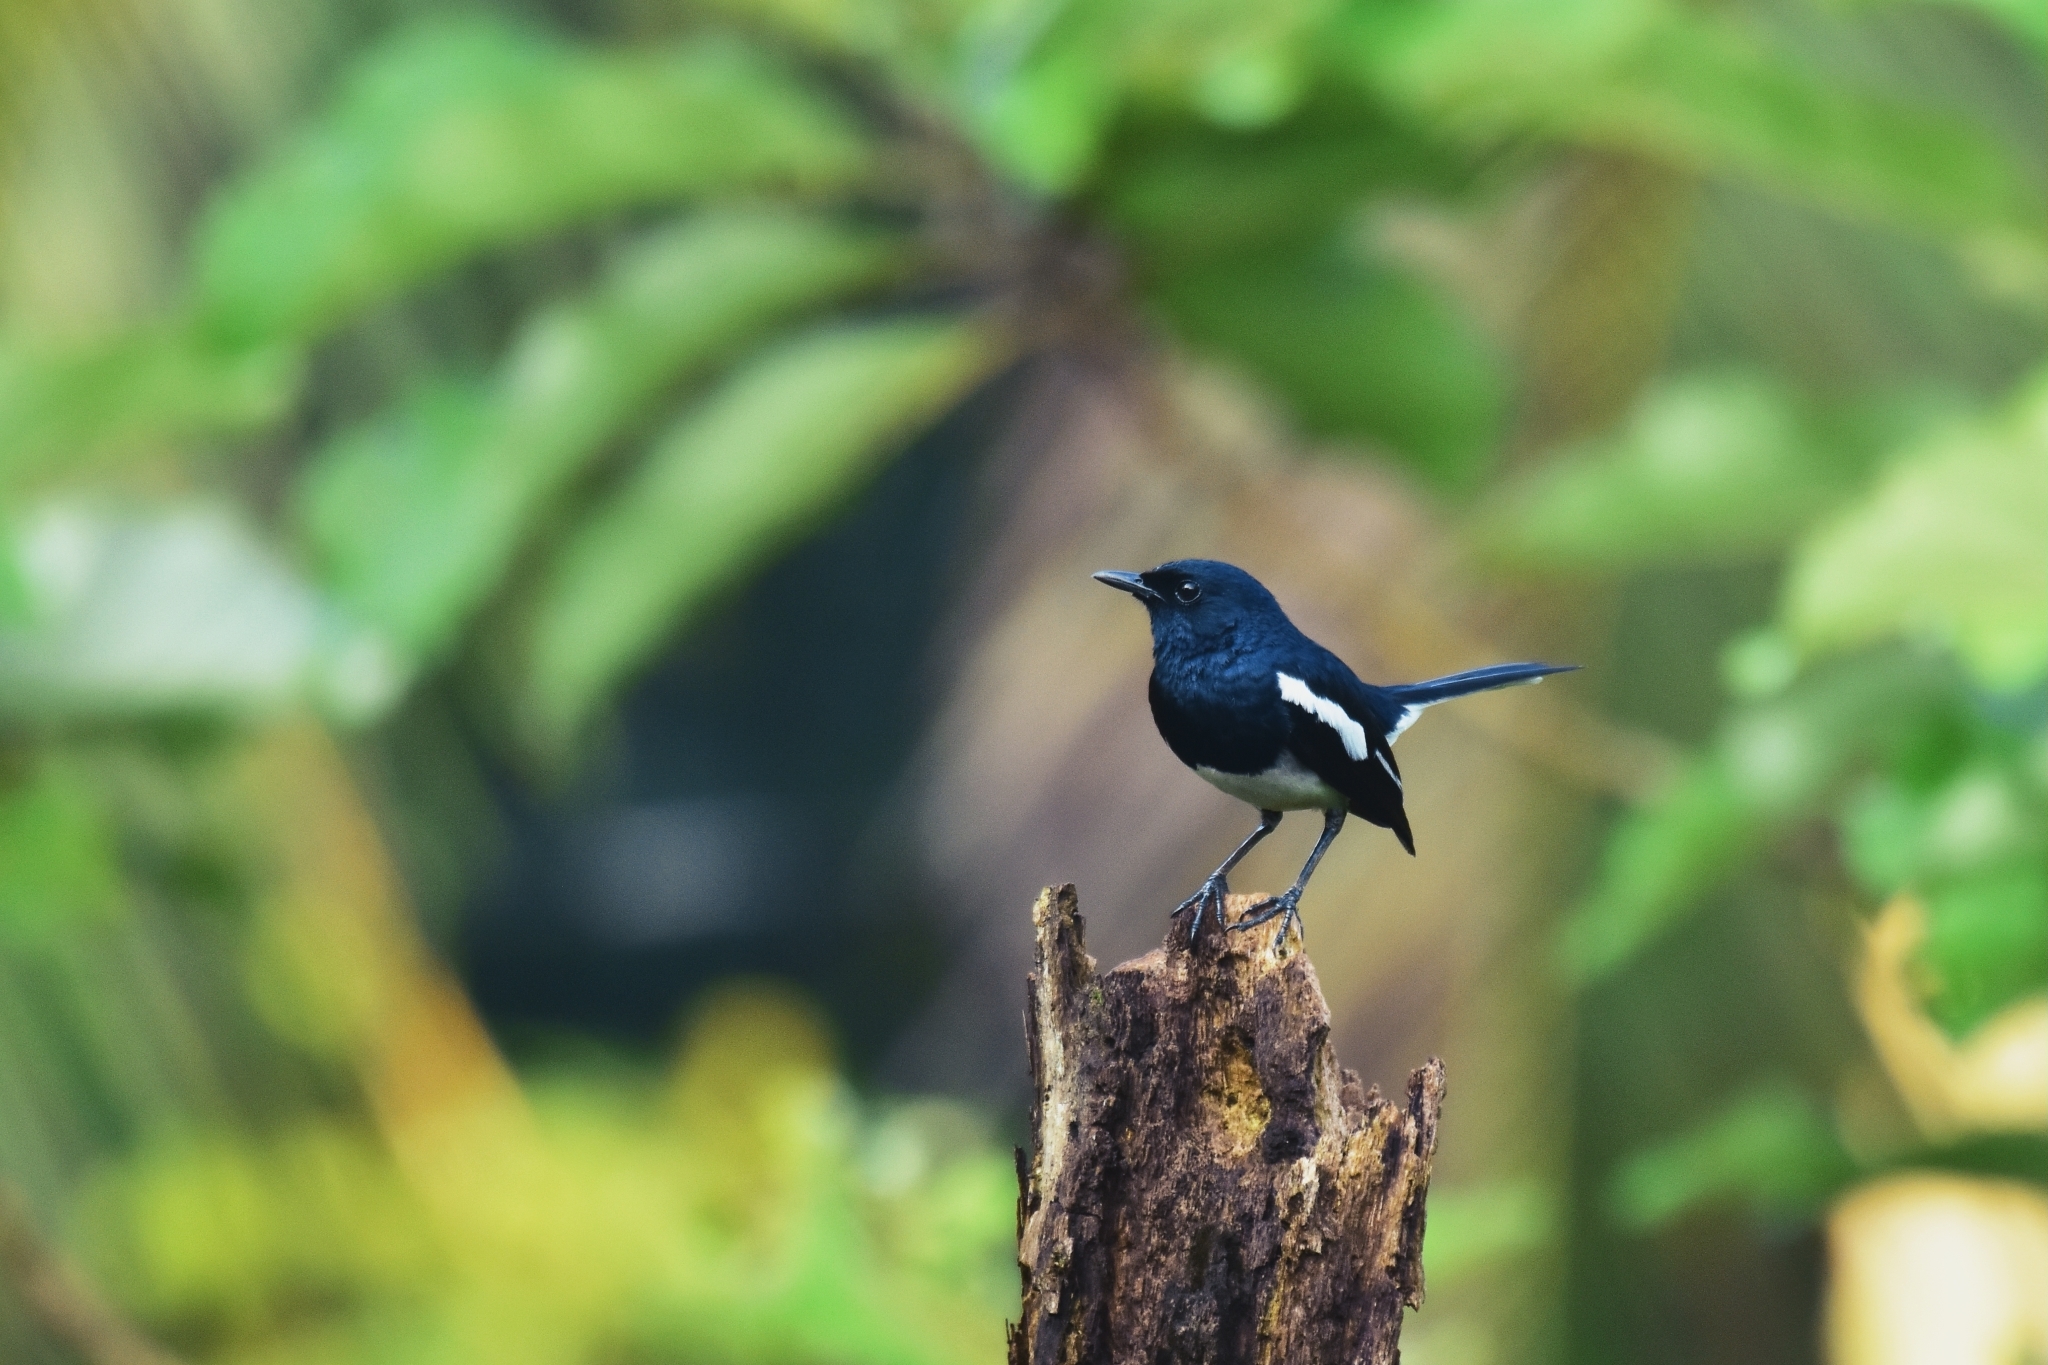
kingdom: Animalia
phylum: Chordata
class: Aves
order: Passeriformes
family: Muscicapidae
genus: Copsychus
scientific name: Copsychus saularis
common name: Oriental magpie-robin
